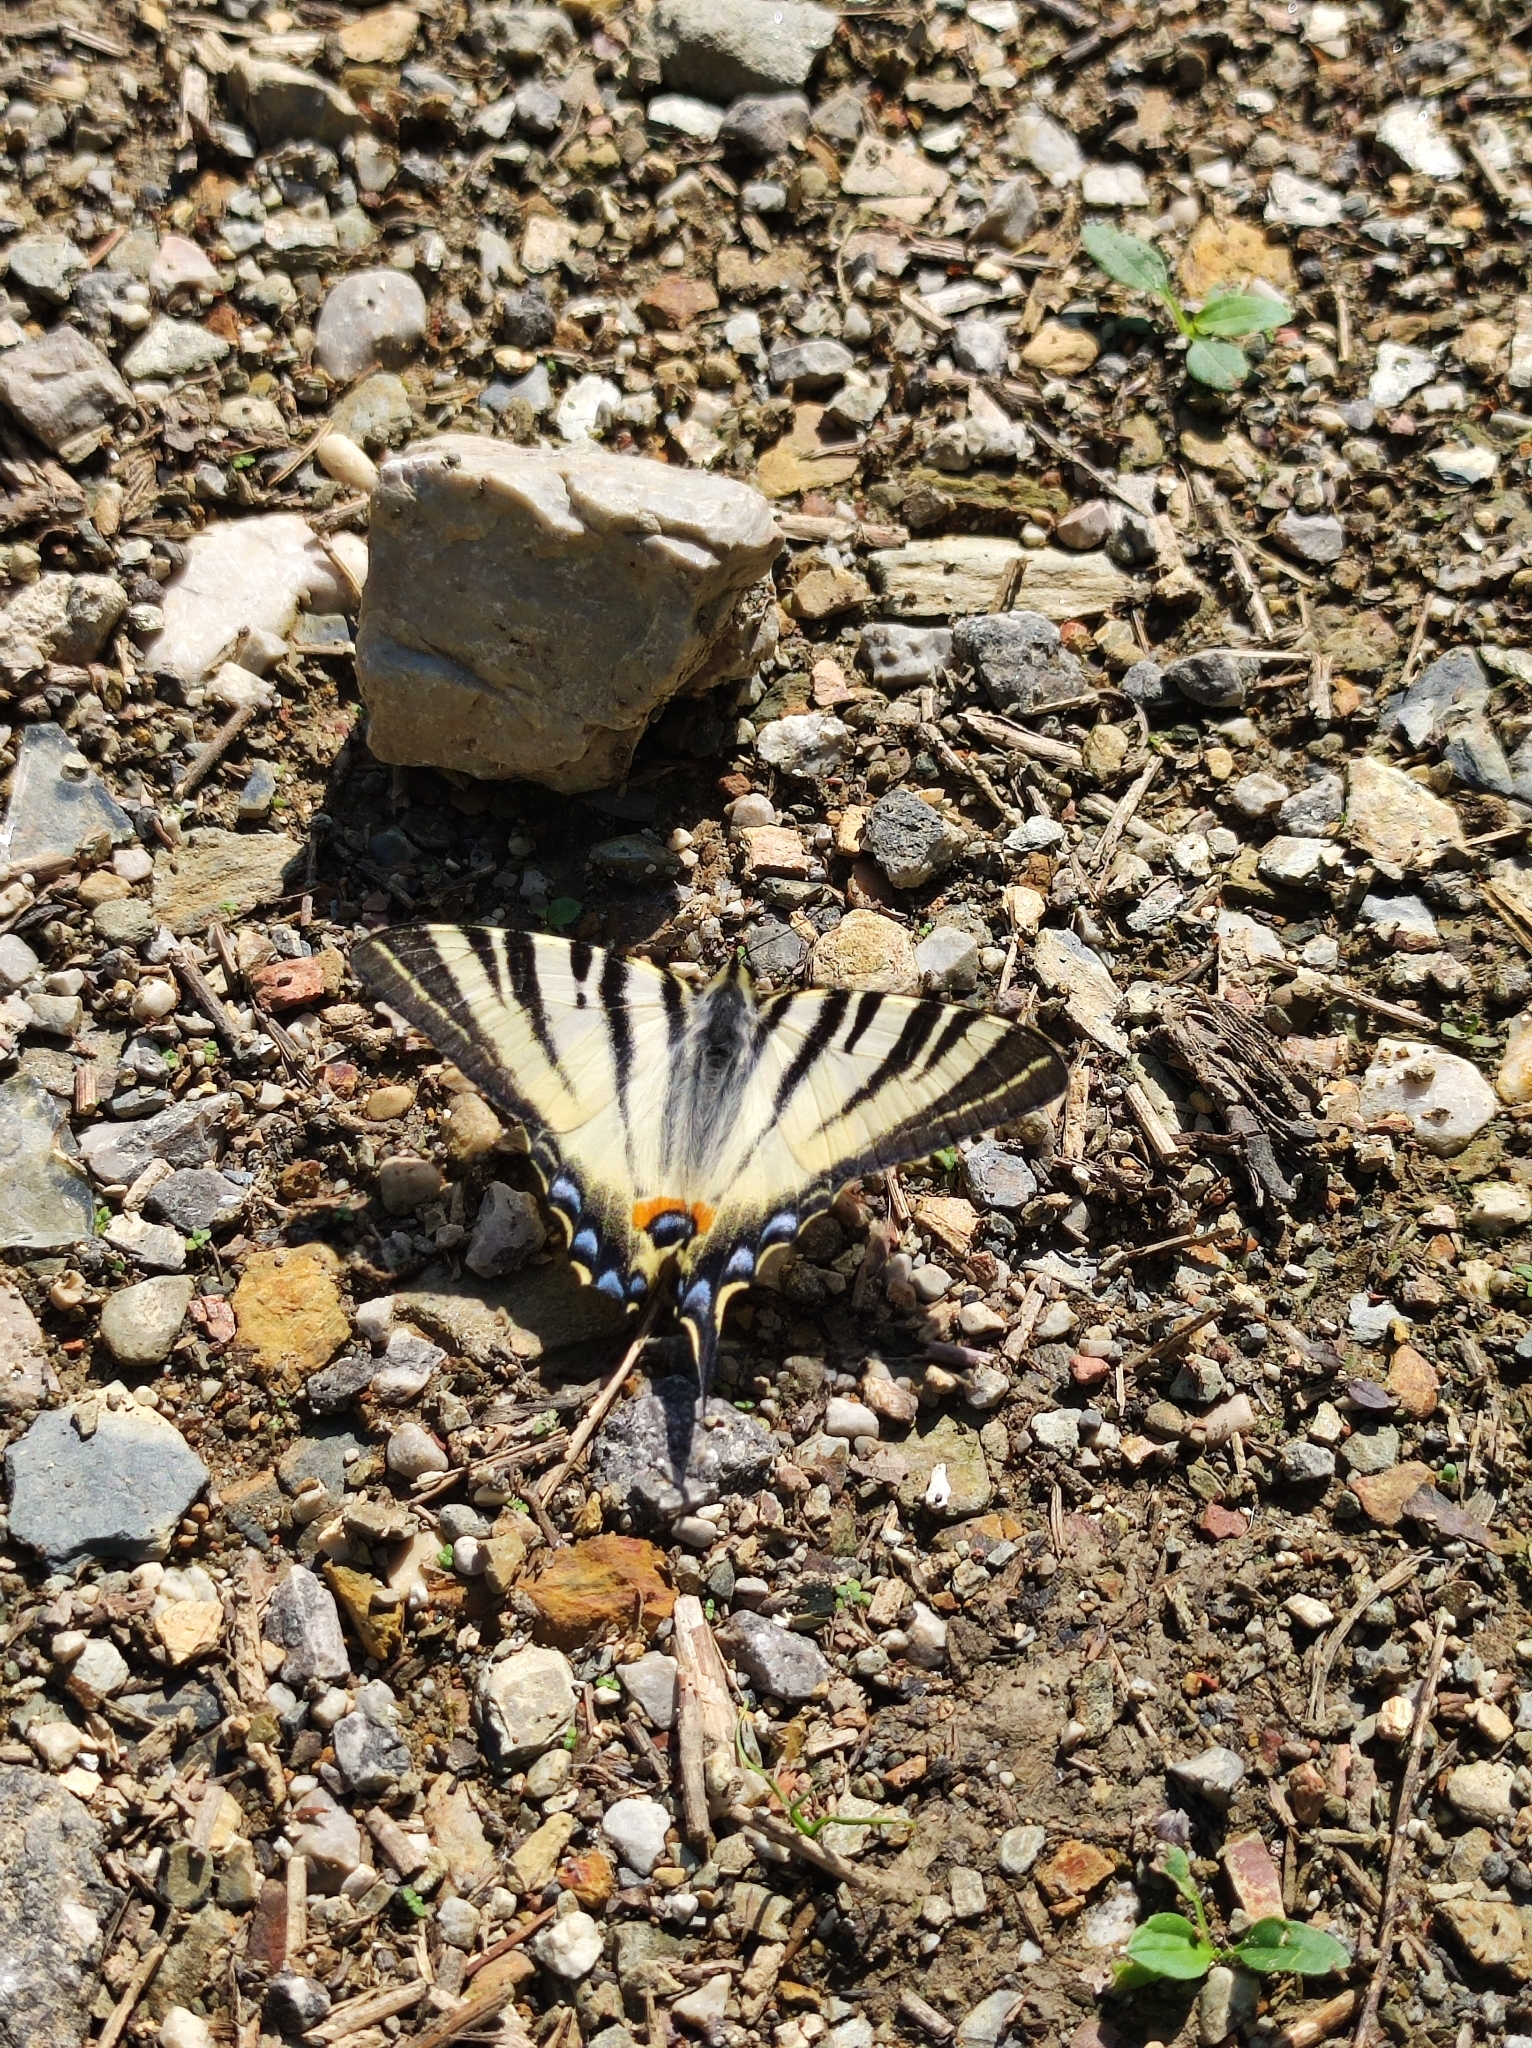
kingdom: Animalia
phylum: Arthropoda
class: Insecta
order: Lepidoptera
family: Papilionidae
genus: Iphiclides
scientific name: Iphiclides podalirius
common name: Scarce swallowtail
